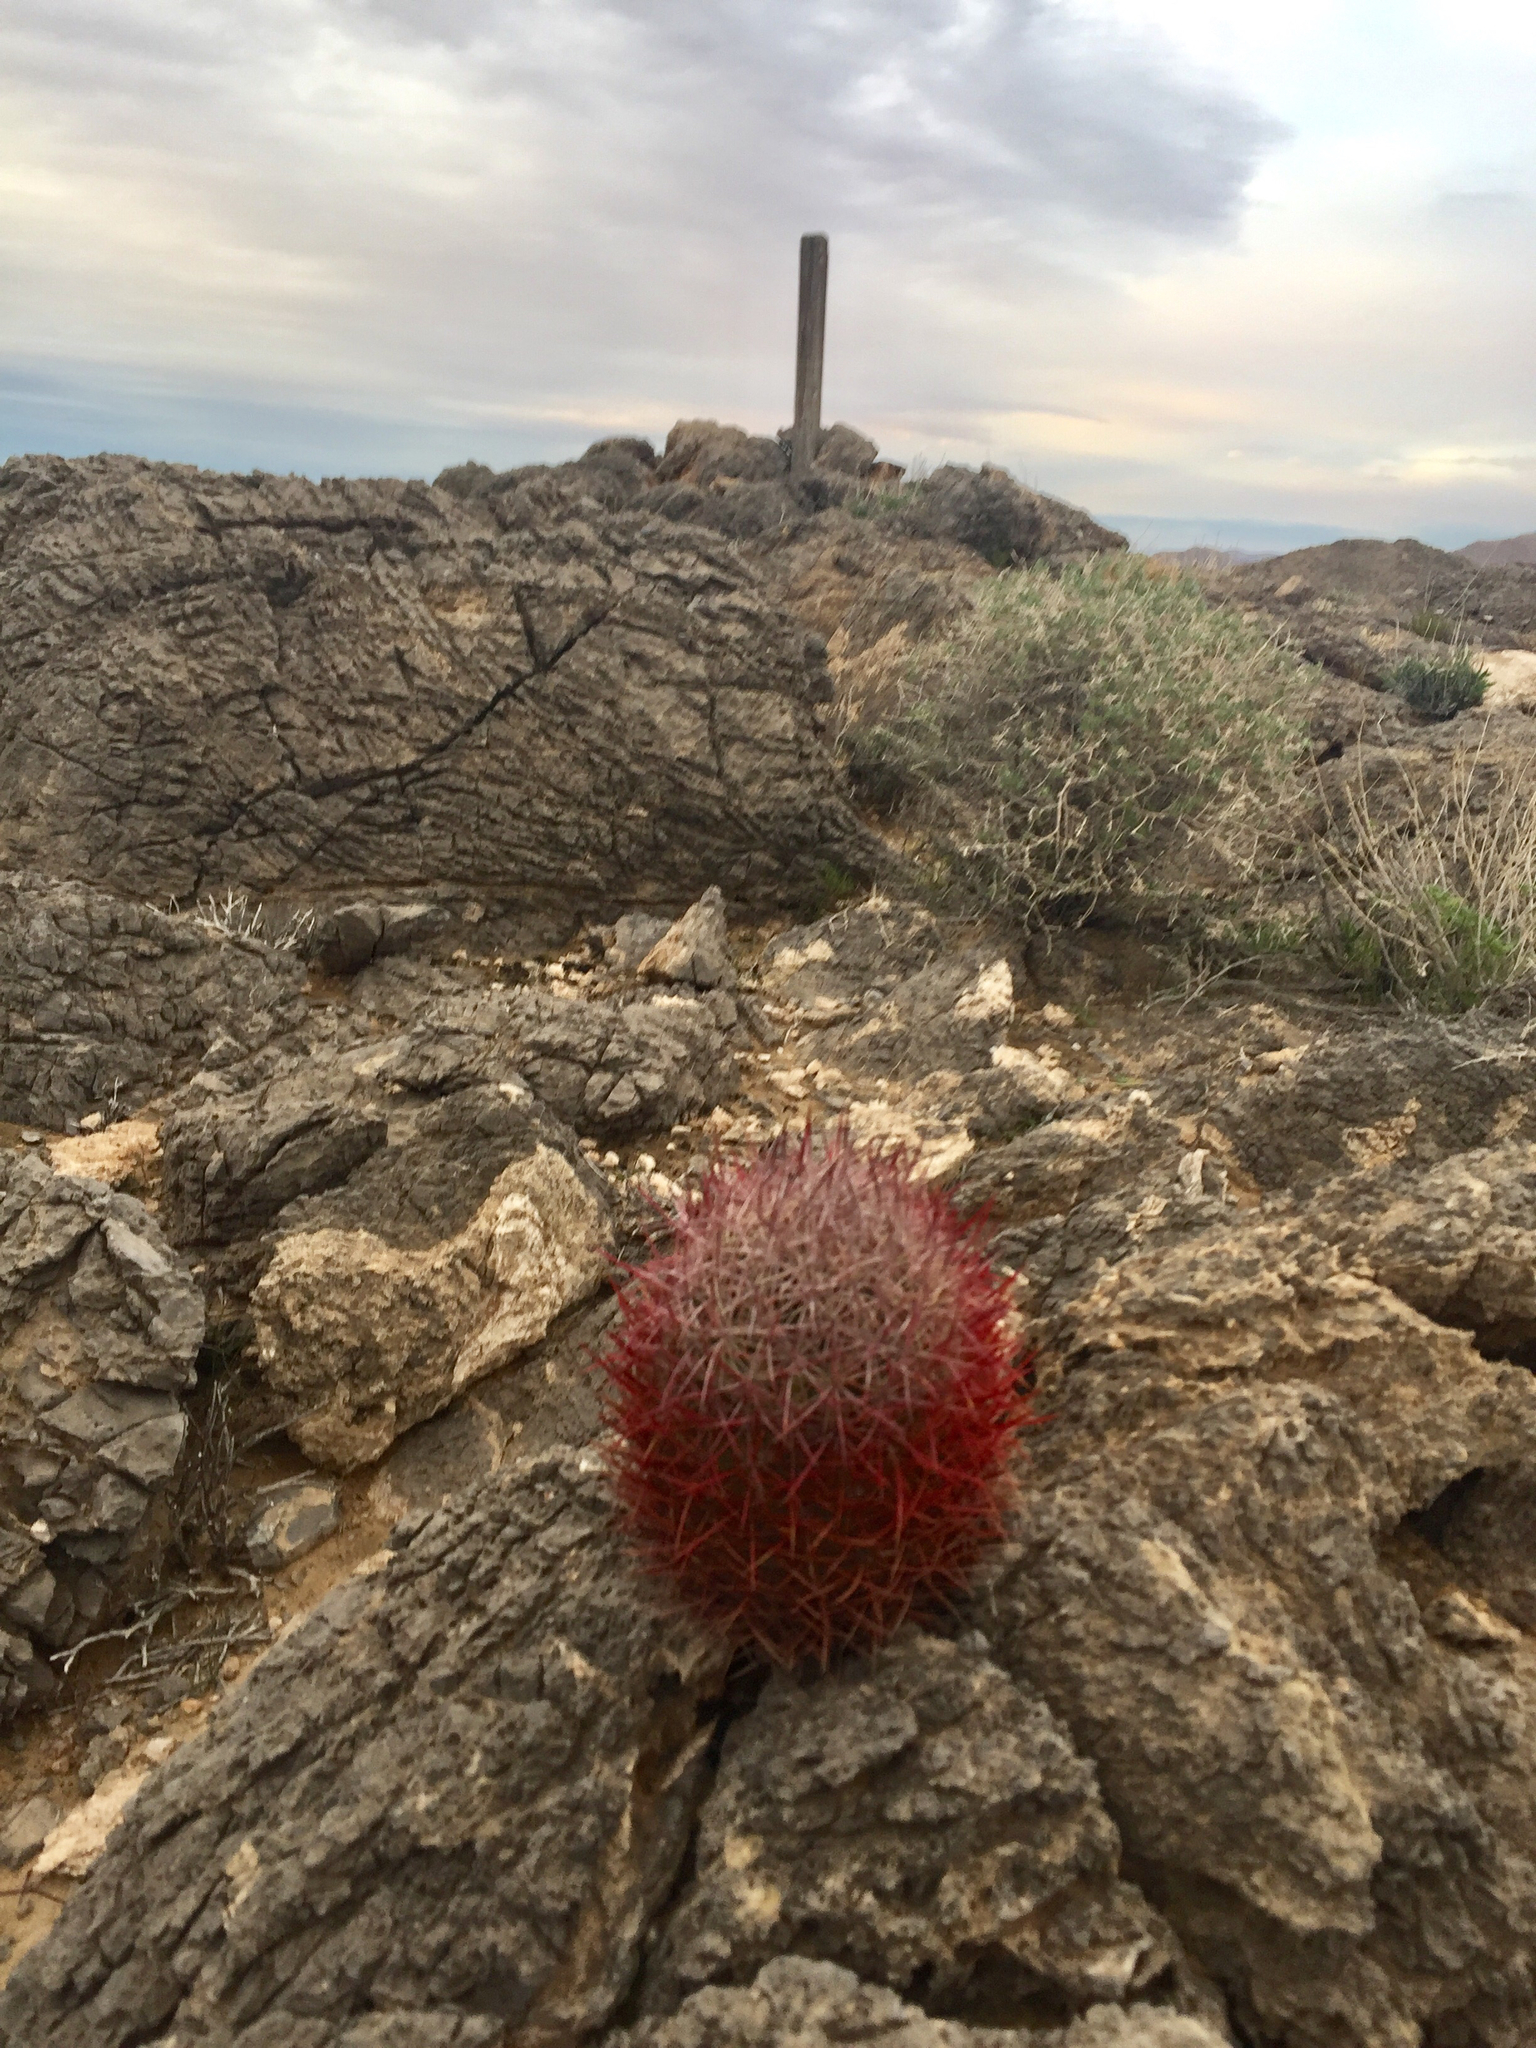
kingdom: Plantae
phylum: Tracheophyta
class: Magnoliopsida
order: Caryophyllales
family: Cactaceae
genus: Sclerocactus
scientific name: Sclerocactus johnsonii
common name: Eight-spine fishhook cactus
